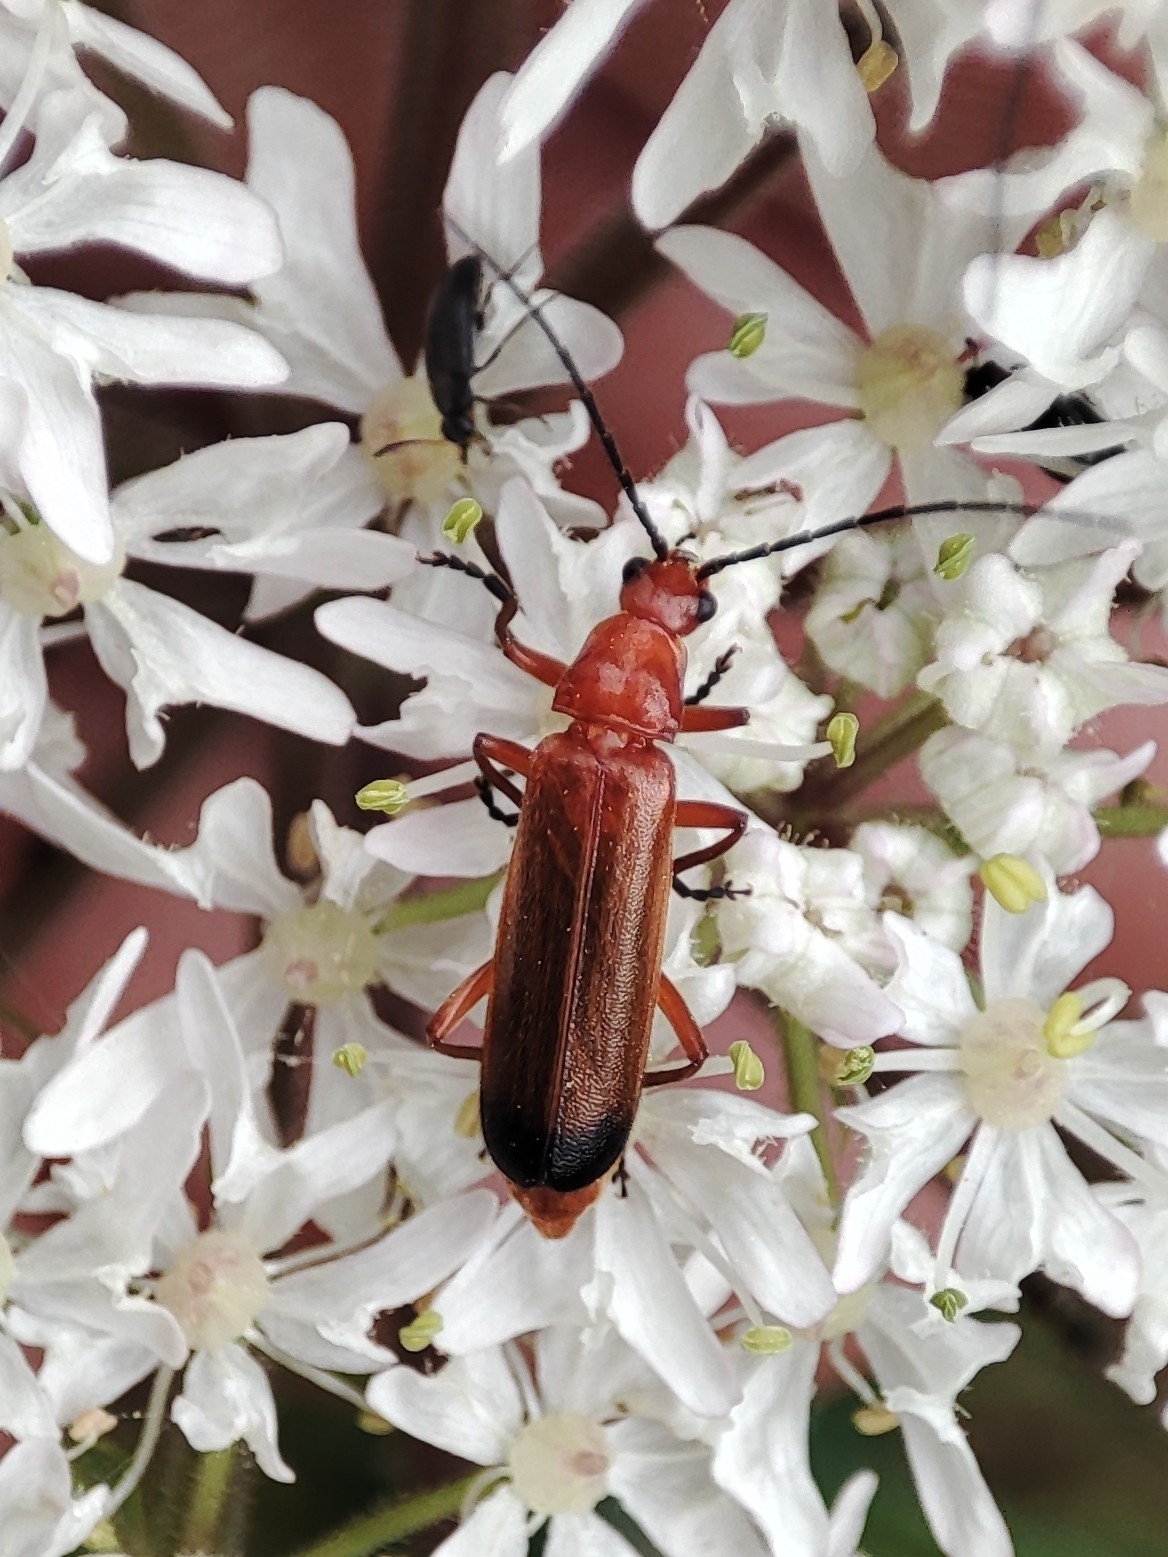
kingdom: Animalia
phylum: Arthropoda
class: Insecta
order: Coleoptera
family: Cantharidae
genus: Rhagonycha
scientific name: Rhagonycha fulva
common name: Common red soldier beetle
